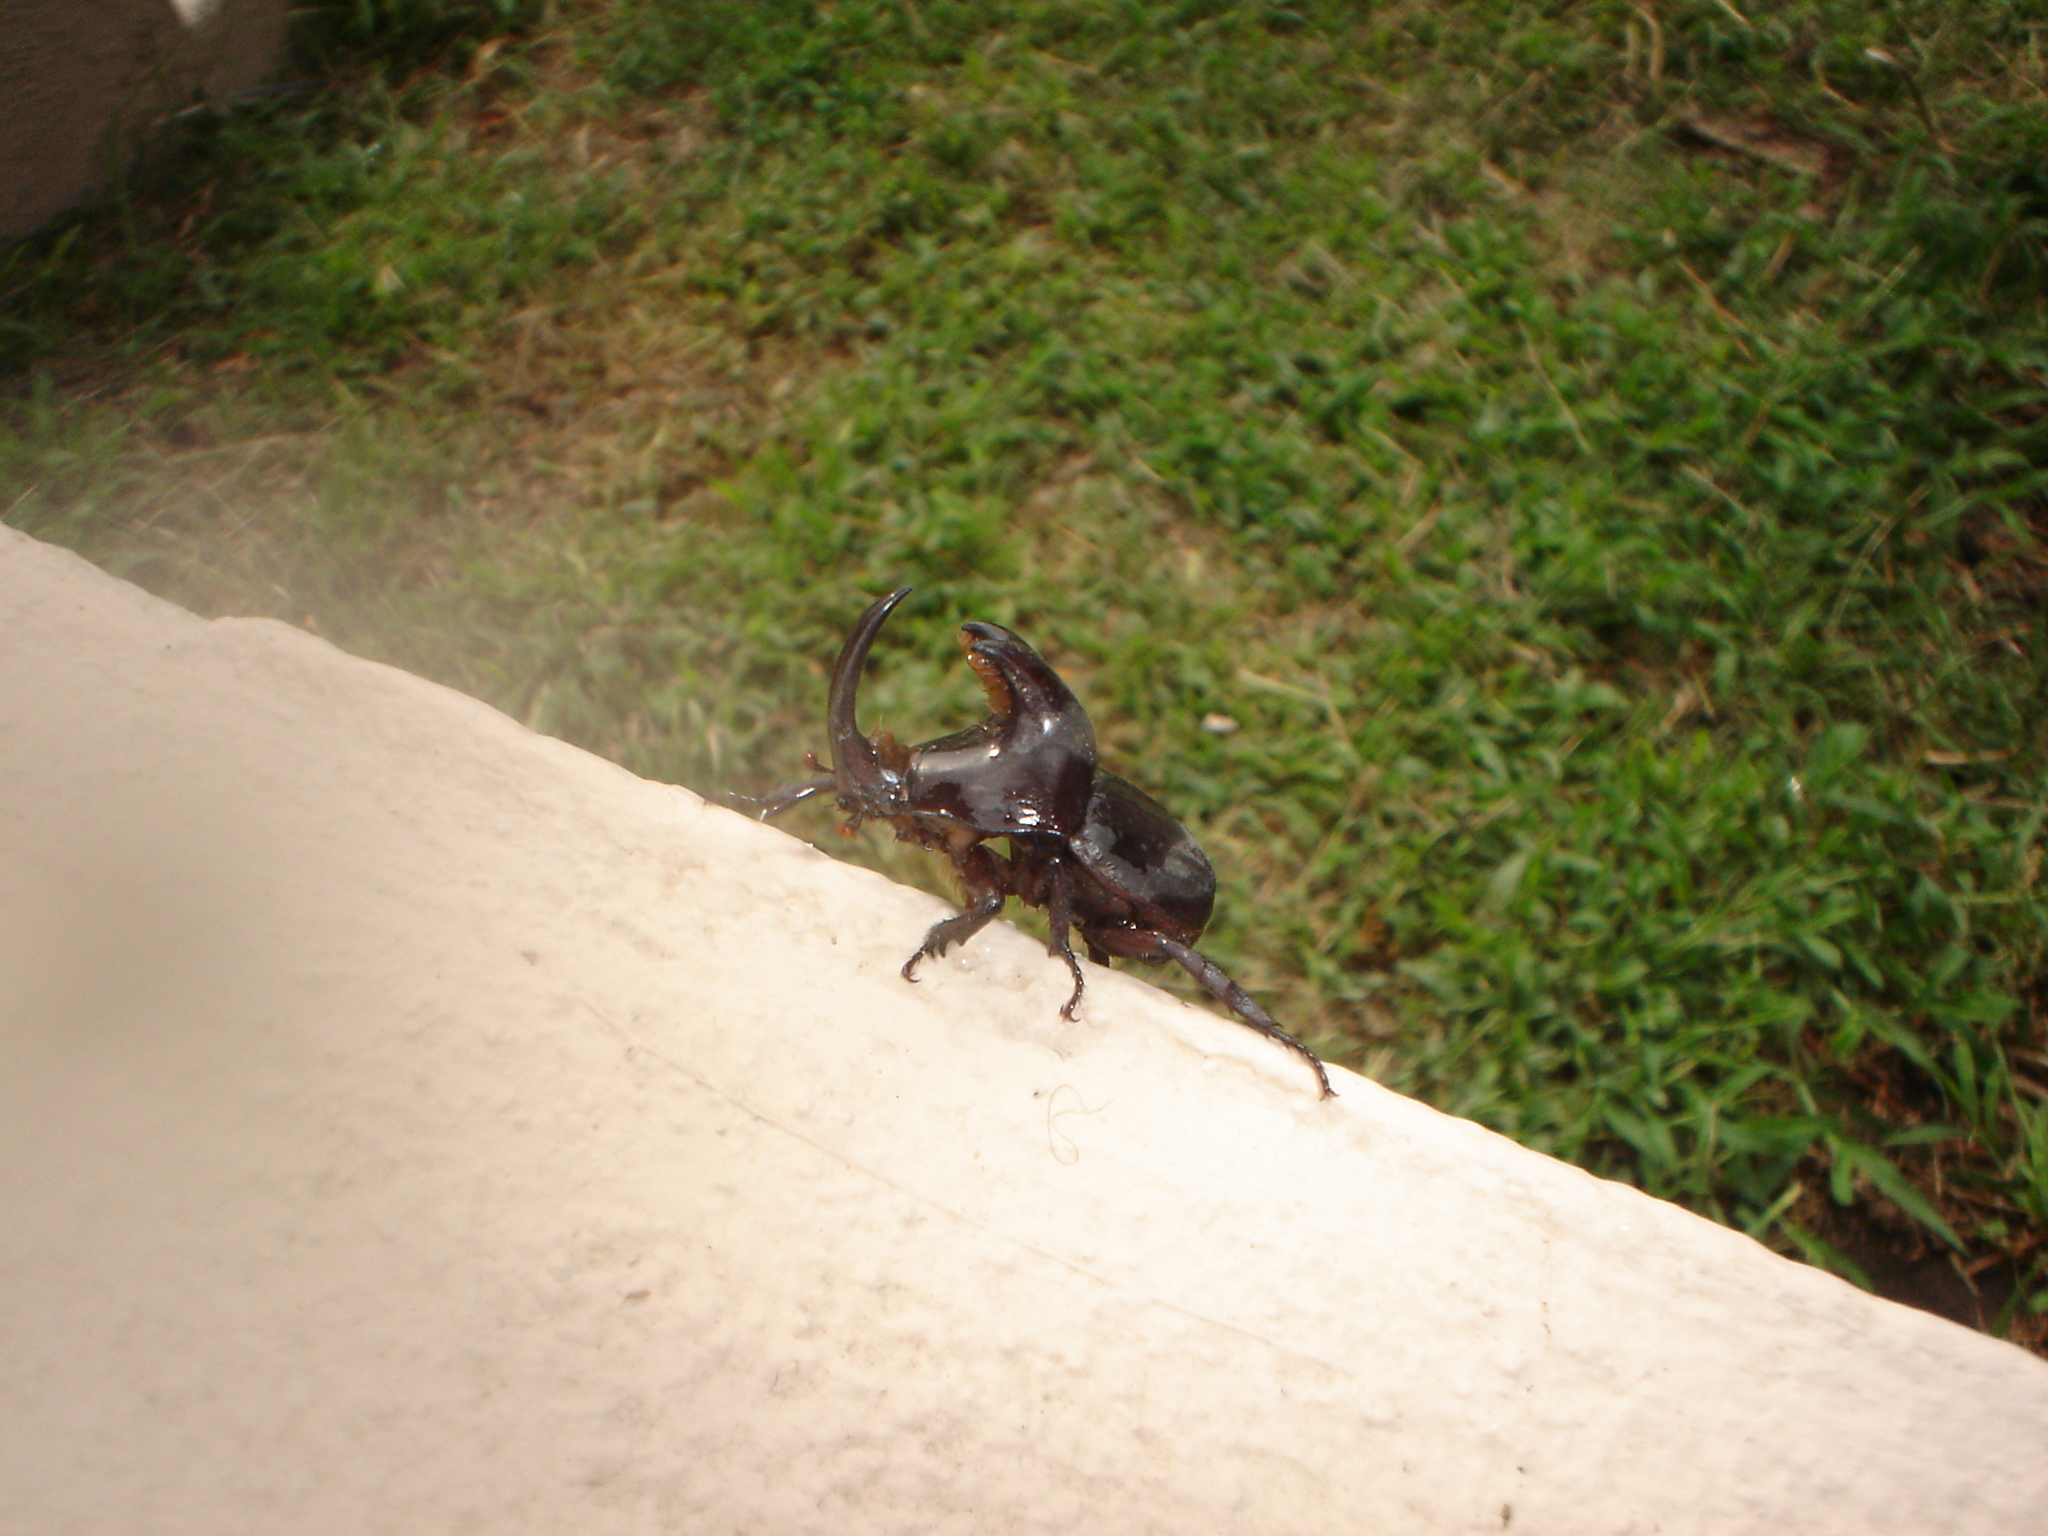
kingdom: Animalia
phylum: Arthropoda
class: Insecta
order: Coleoptera
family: Scarabaeidae
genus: Diloboderus
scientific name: Diloboderus abderus
